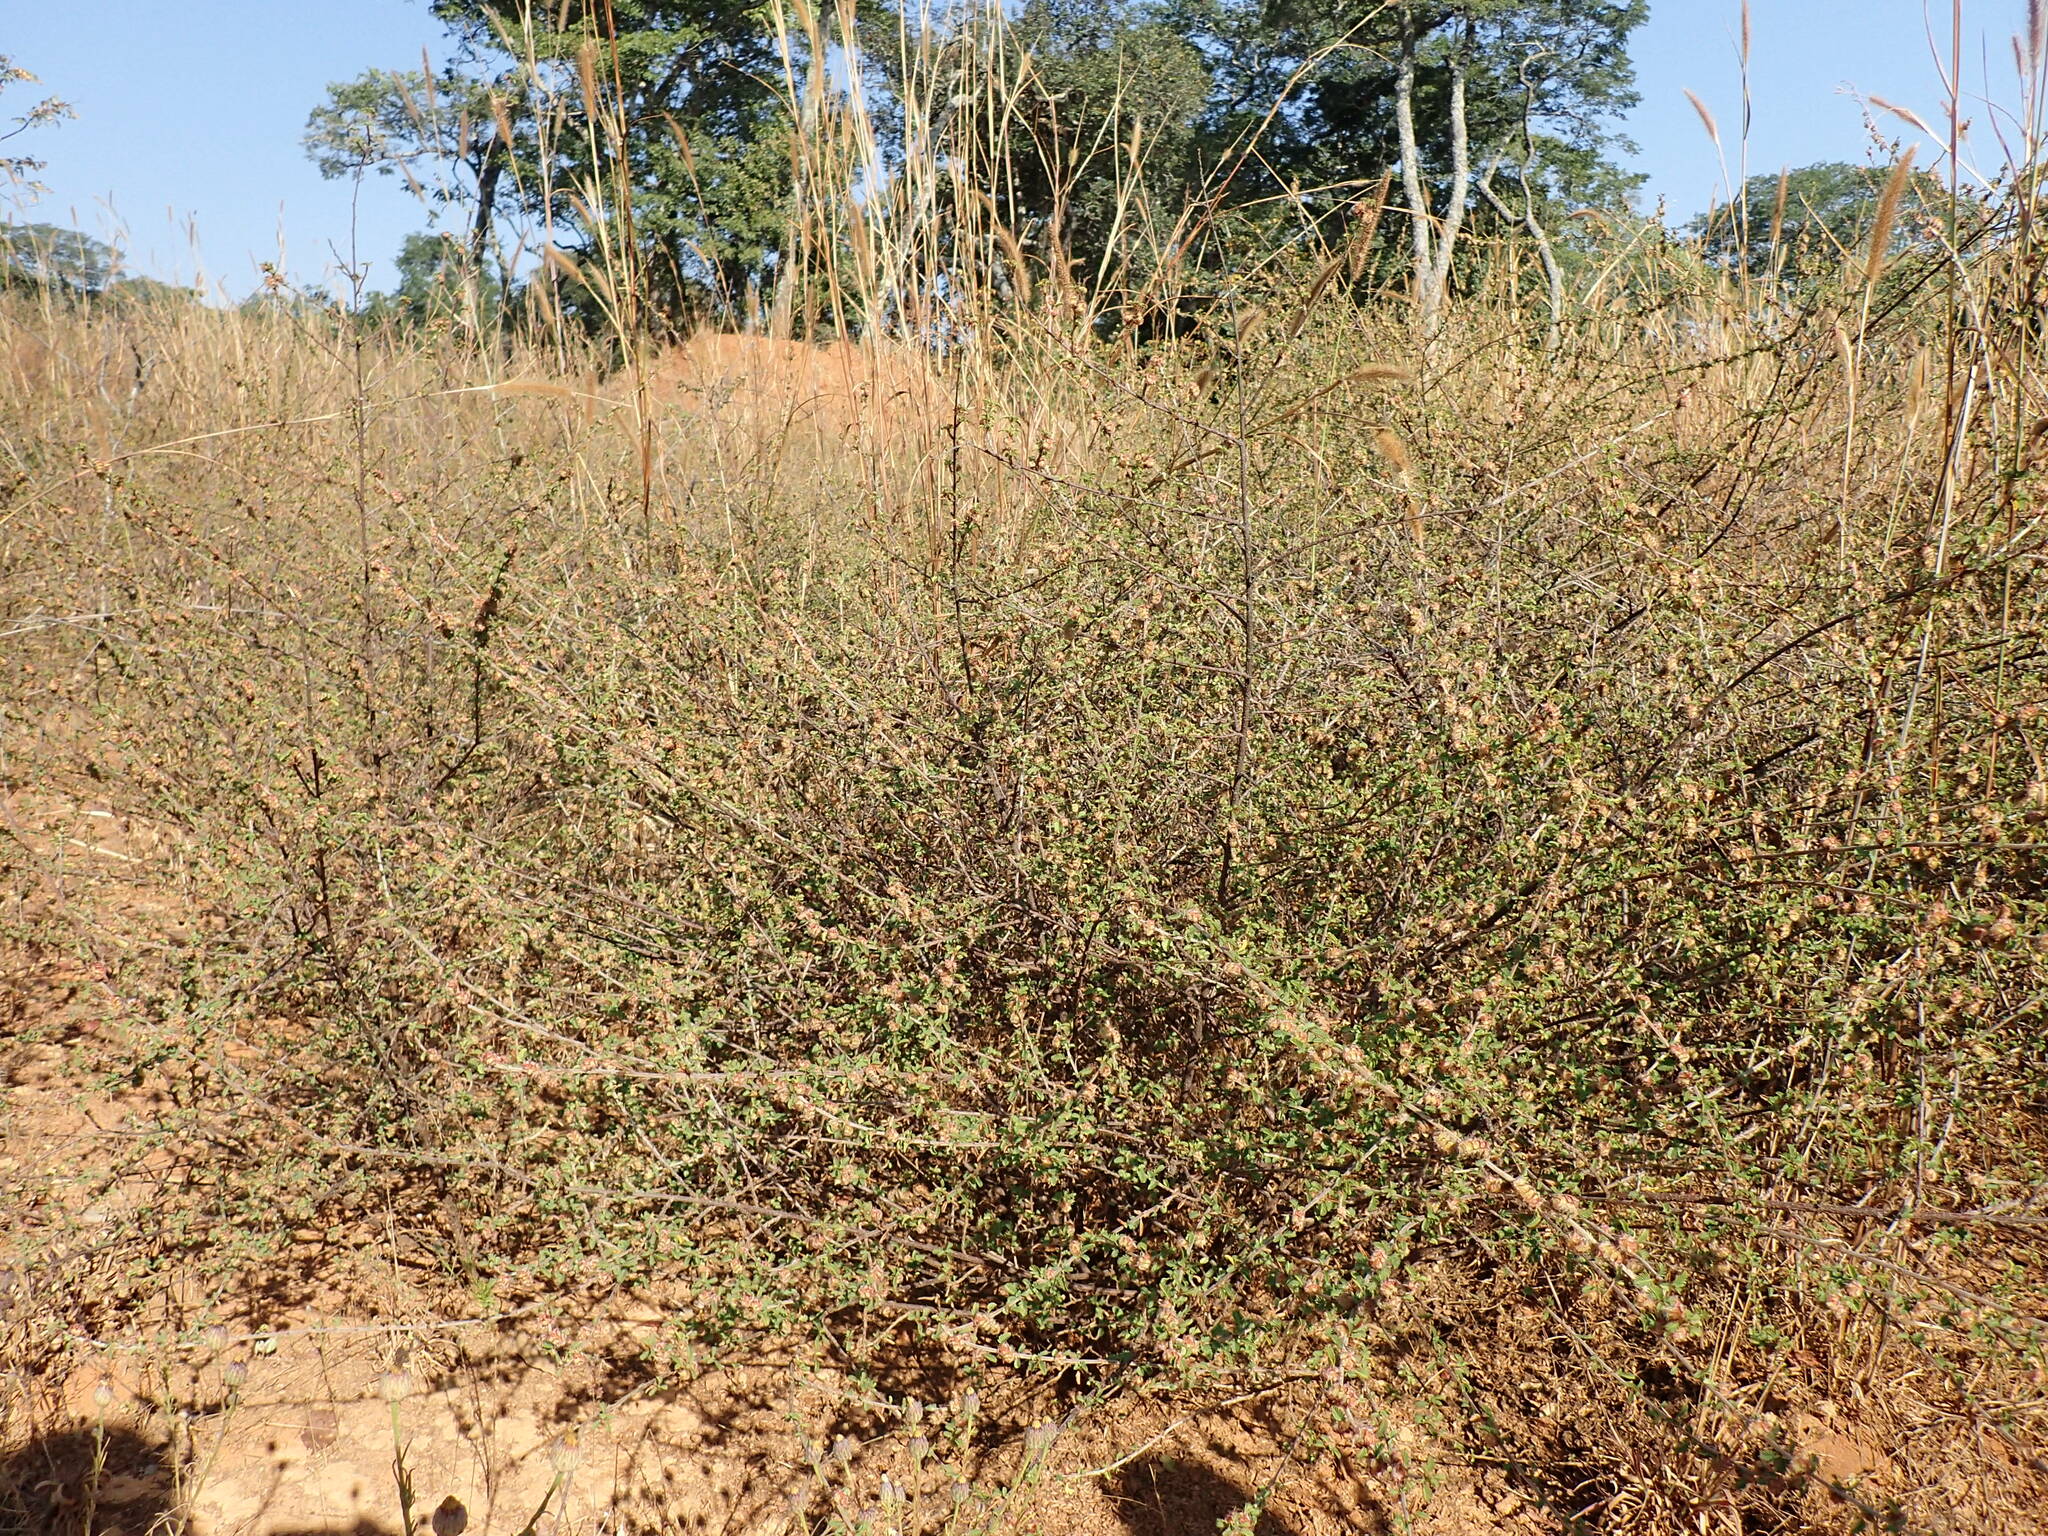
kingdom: Plantae
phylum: Tracheophyta
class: Magnoliopsida
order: Fabales
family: Fabaceae
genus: Kotschya
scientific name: Kotschya strigosa
